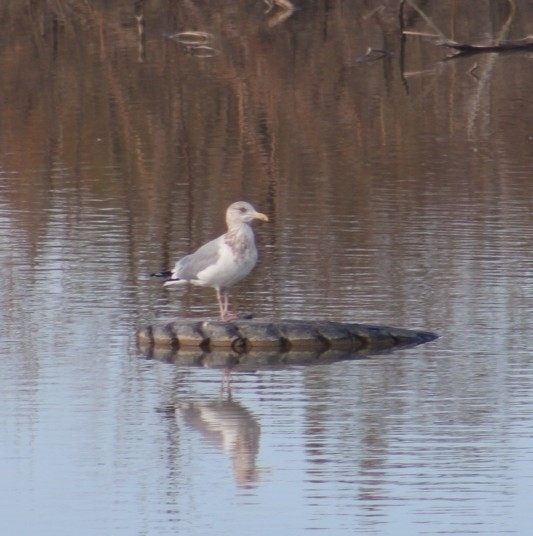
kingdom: Animalia
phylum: Chordata
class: Aves
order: Charadriiformes
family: Laridae
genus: Larus
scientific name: Larus argentatus
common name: Herring gull
